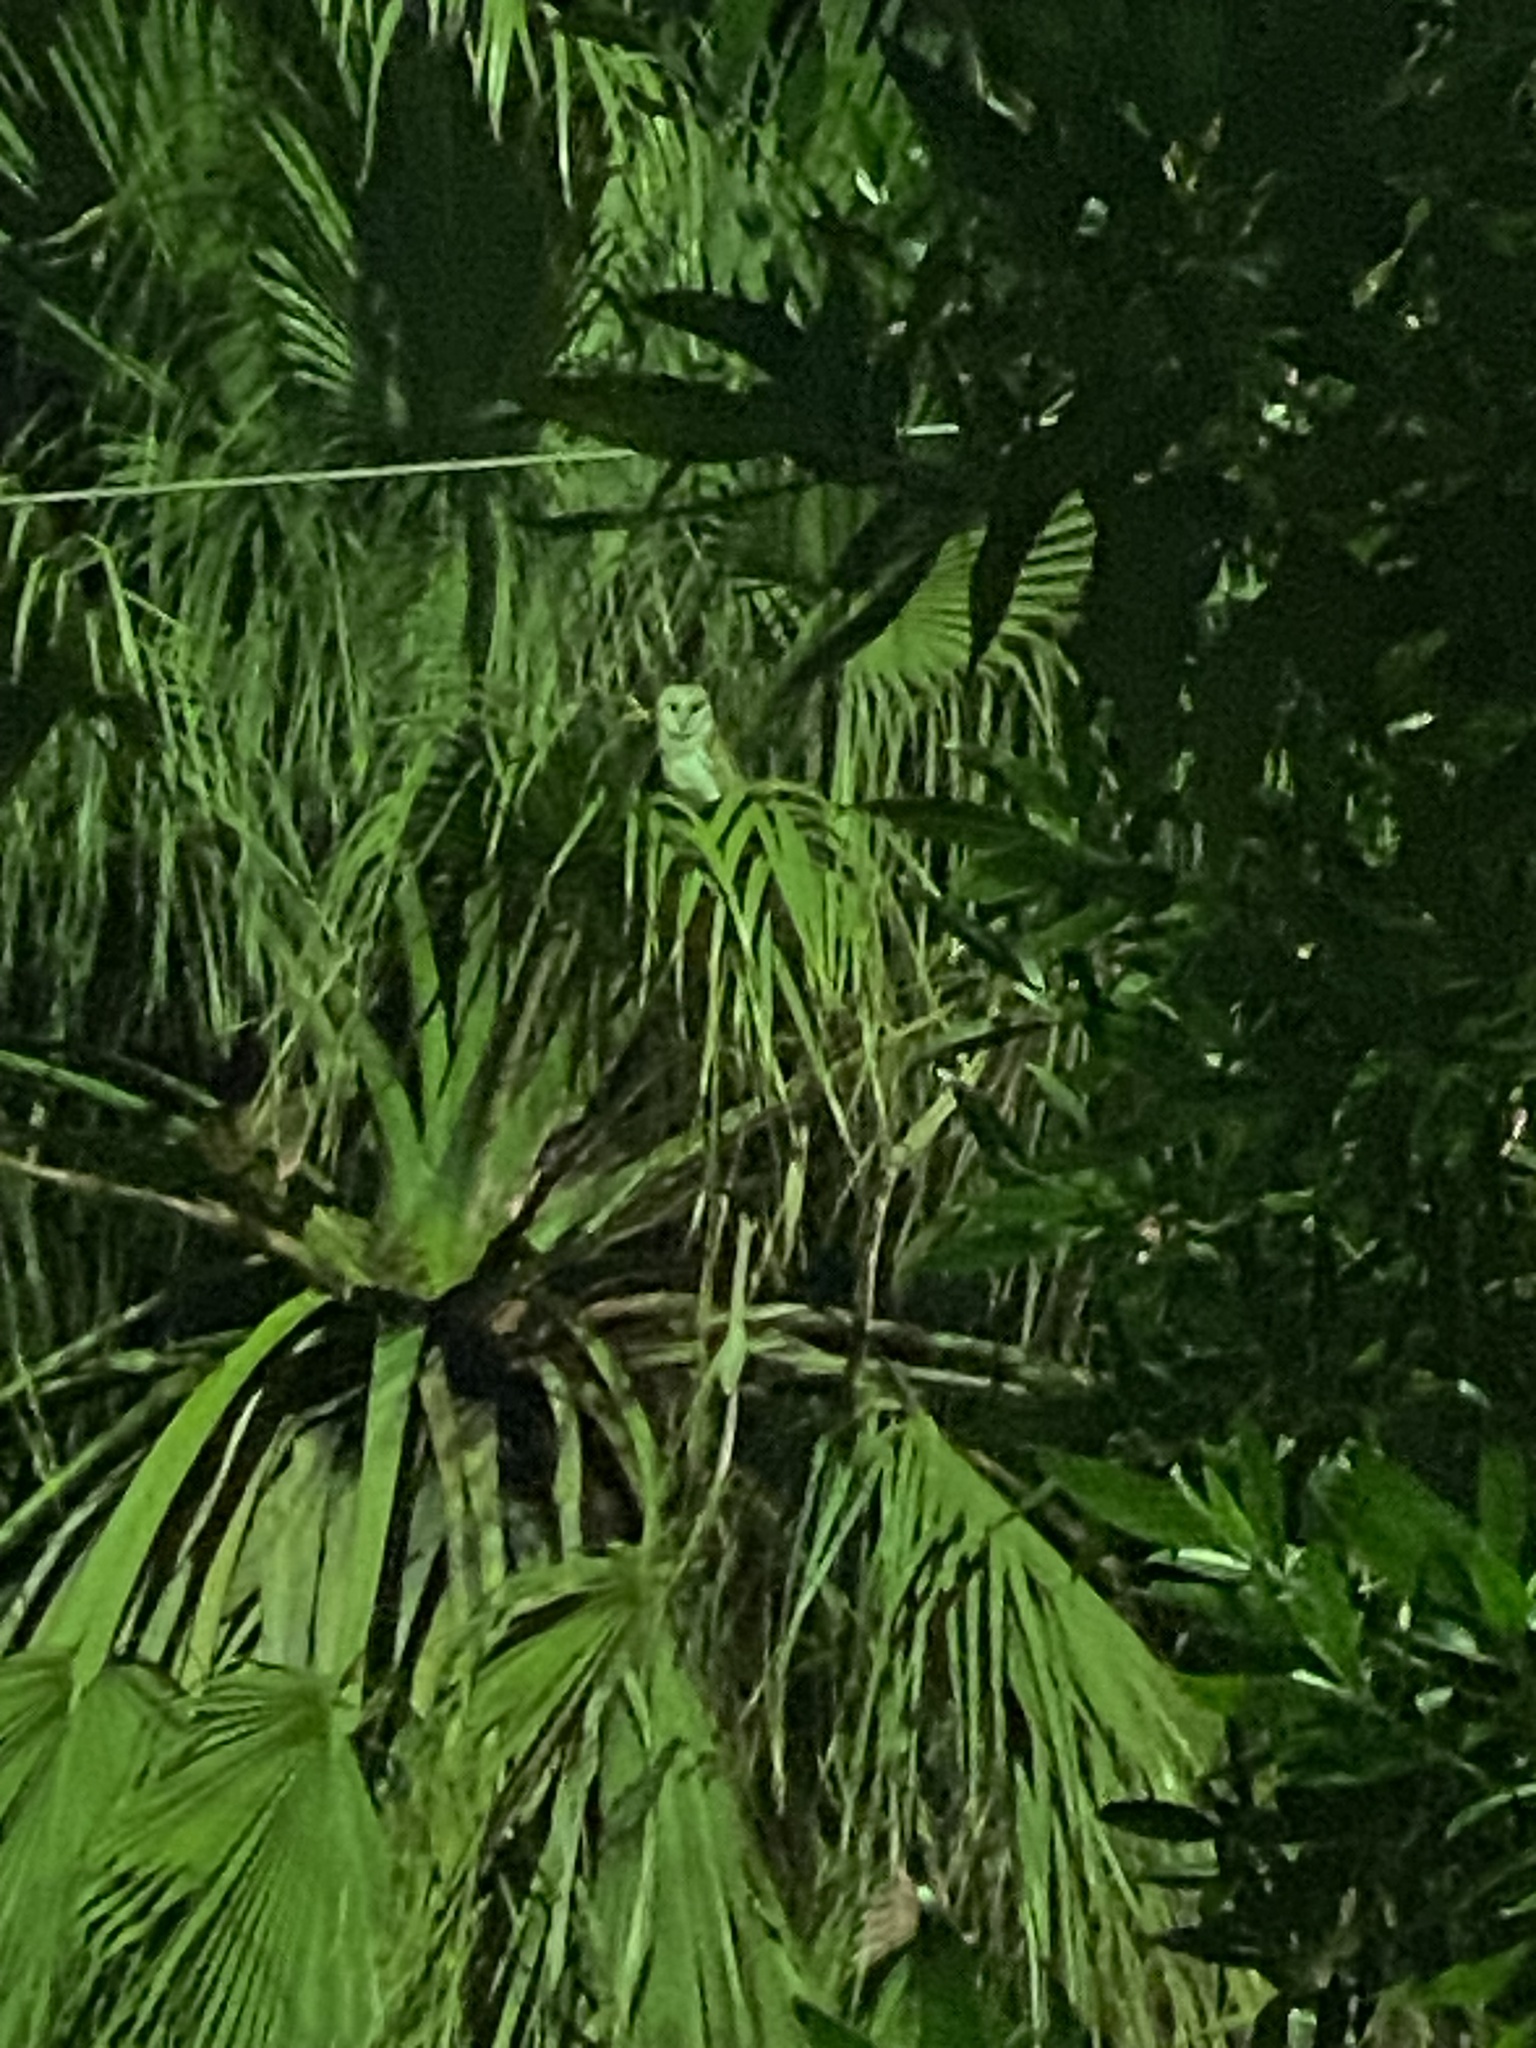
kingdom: Animalia
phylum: Chordata
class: Aves
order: Strigiformes
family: Tytonidae
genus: Tyto
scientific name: Tyto alba
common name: Barn owl
